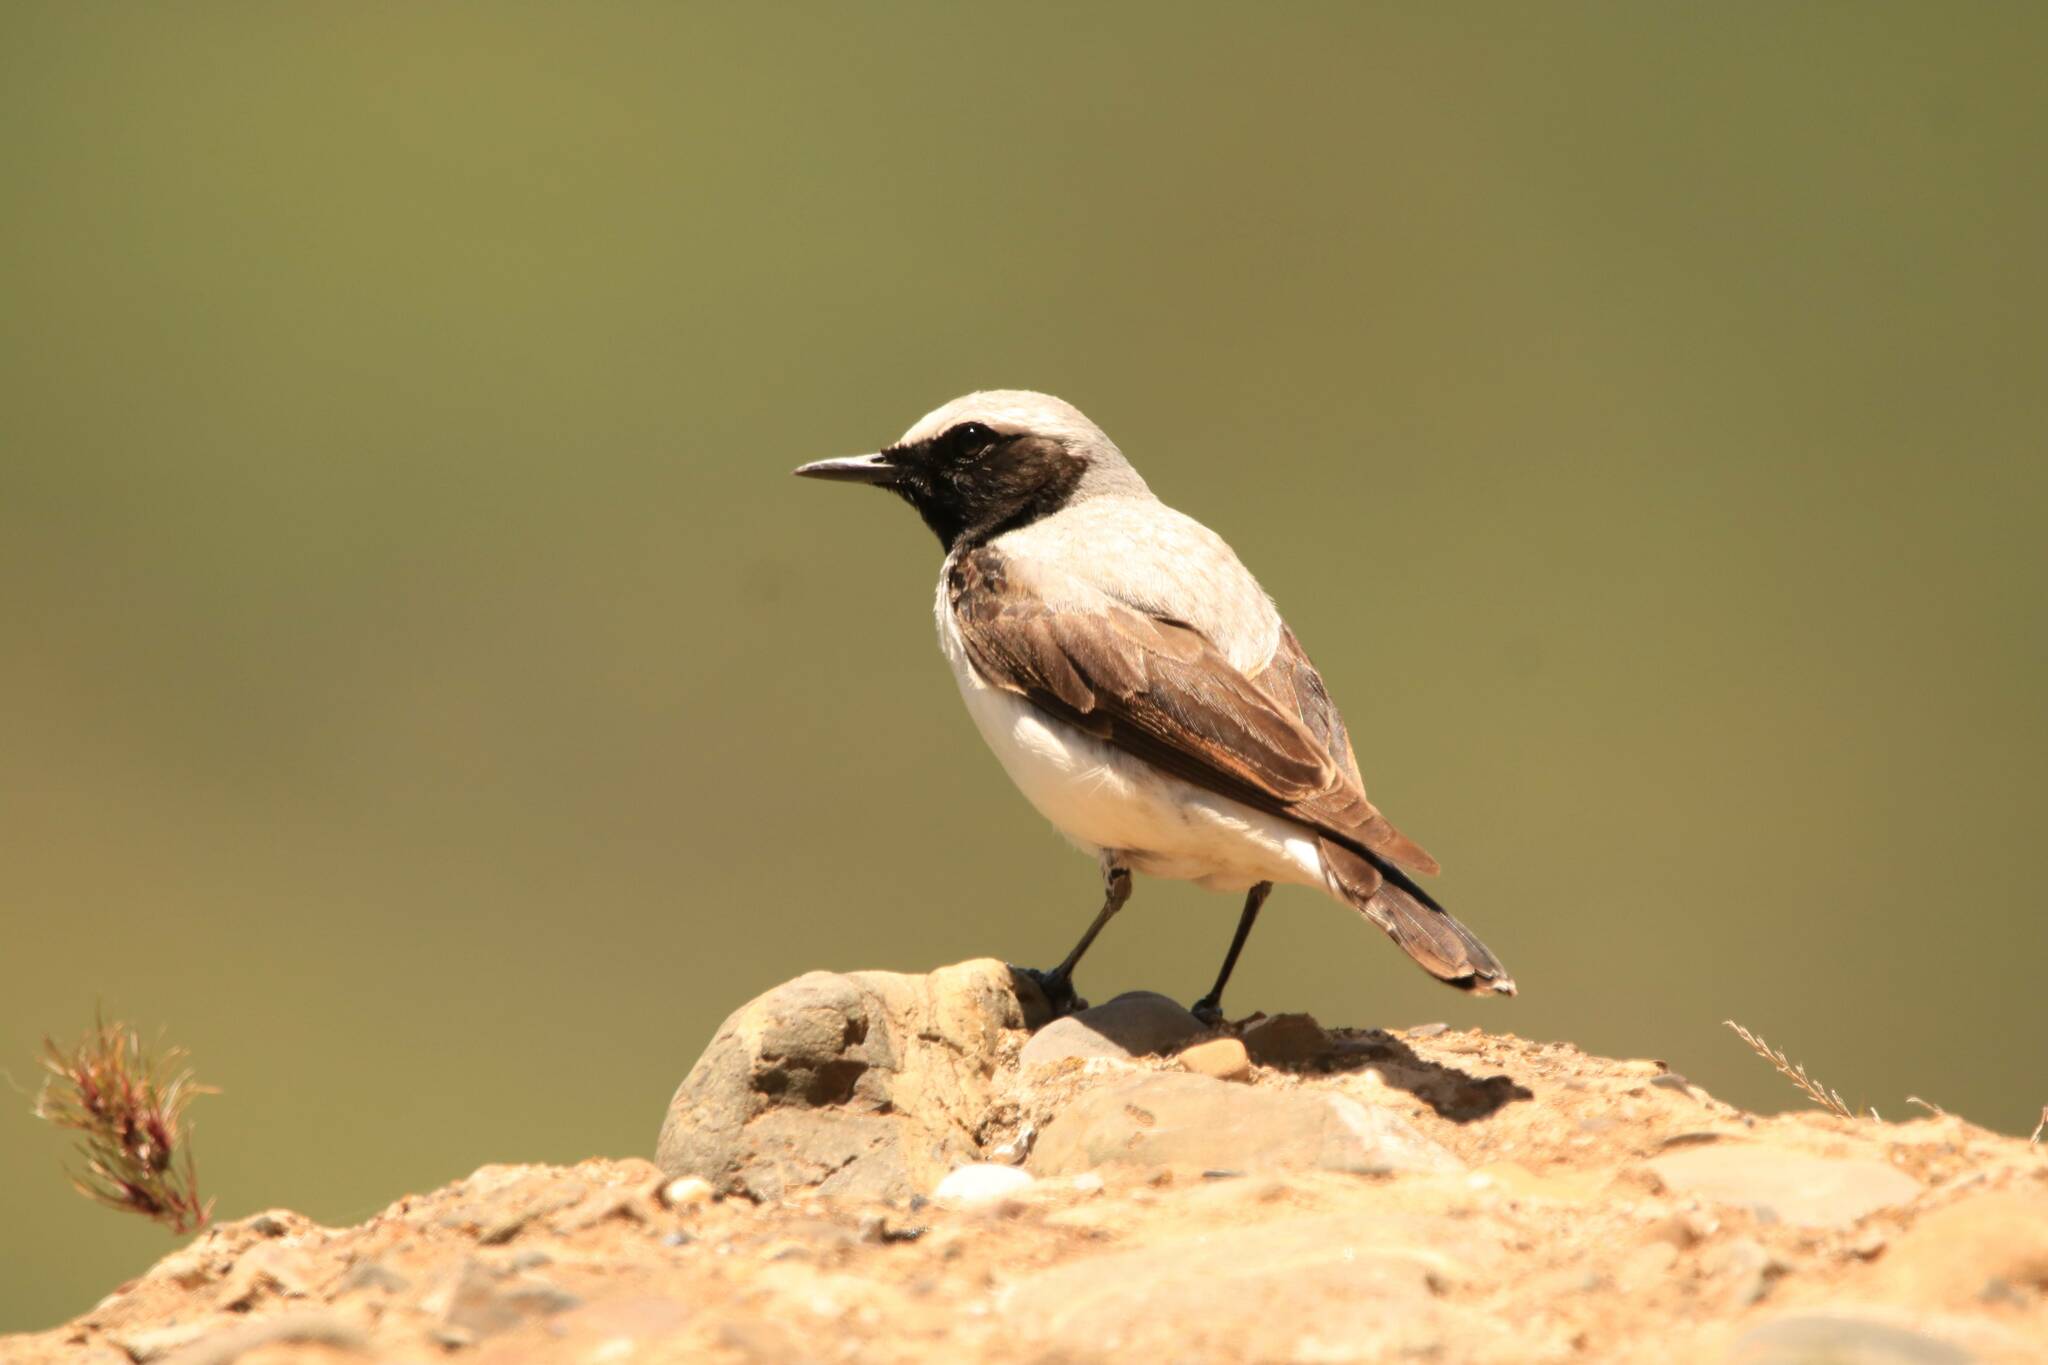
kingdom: Animalia
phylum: Chordata
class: Aves
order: Passeriformes
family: Muscicapidae
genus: Oenanthe
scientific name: Oenanthe oenanthe
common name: Northern wheatear
